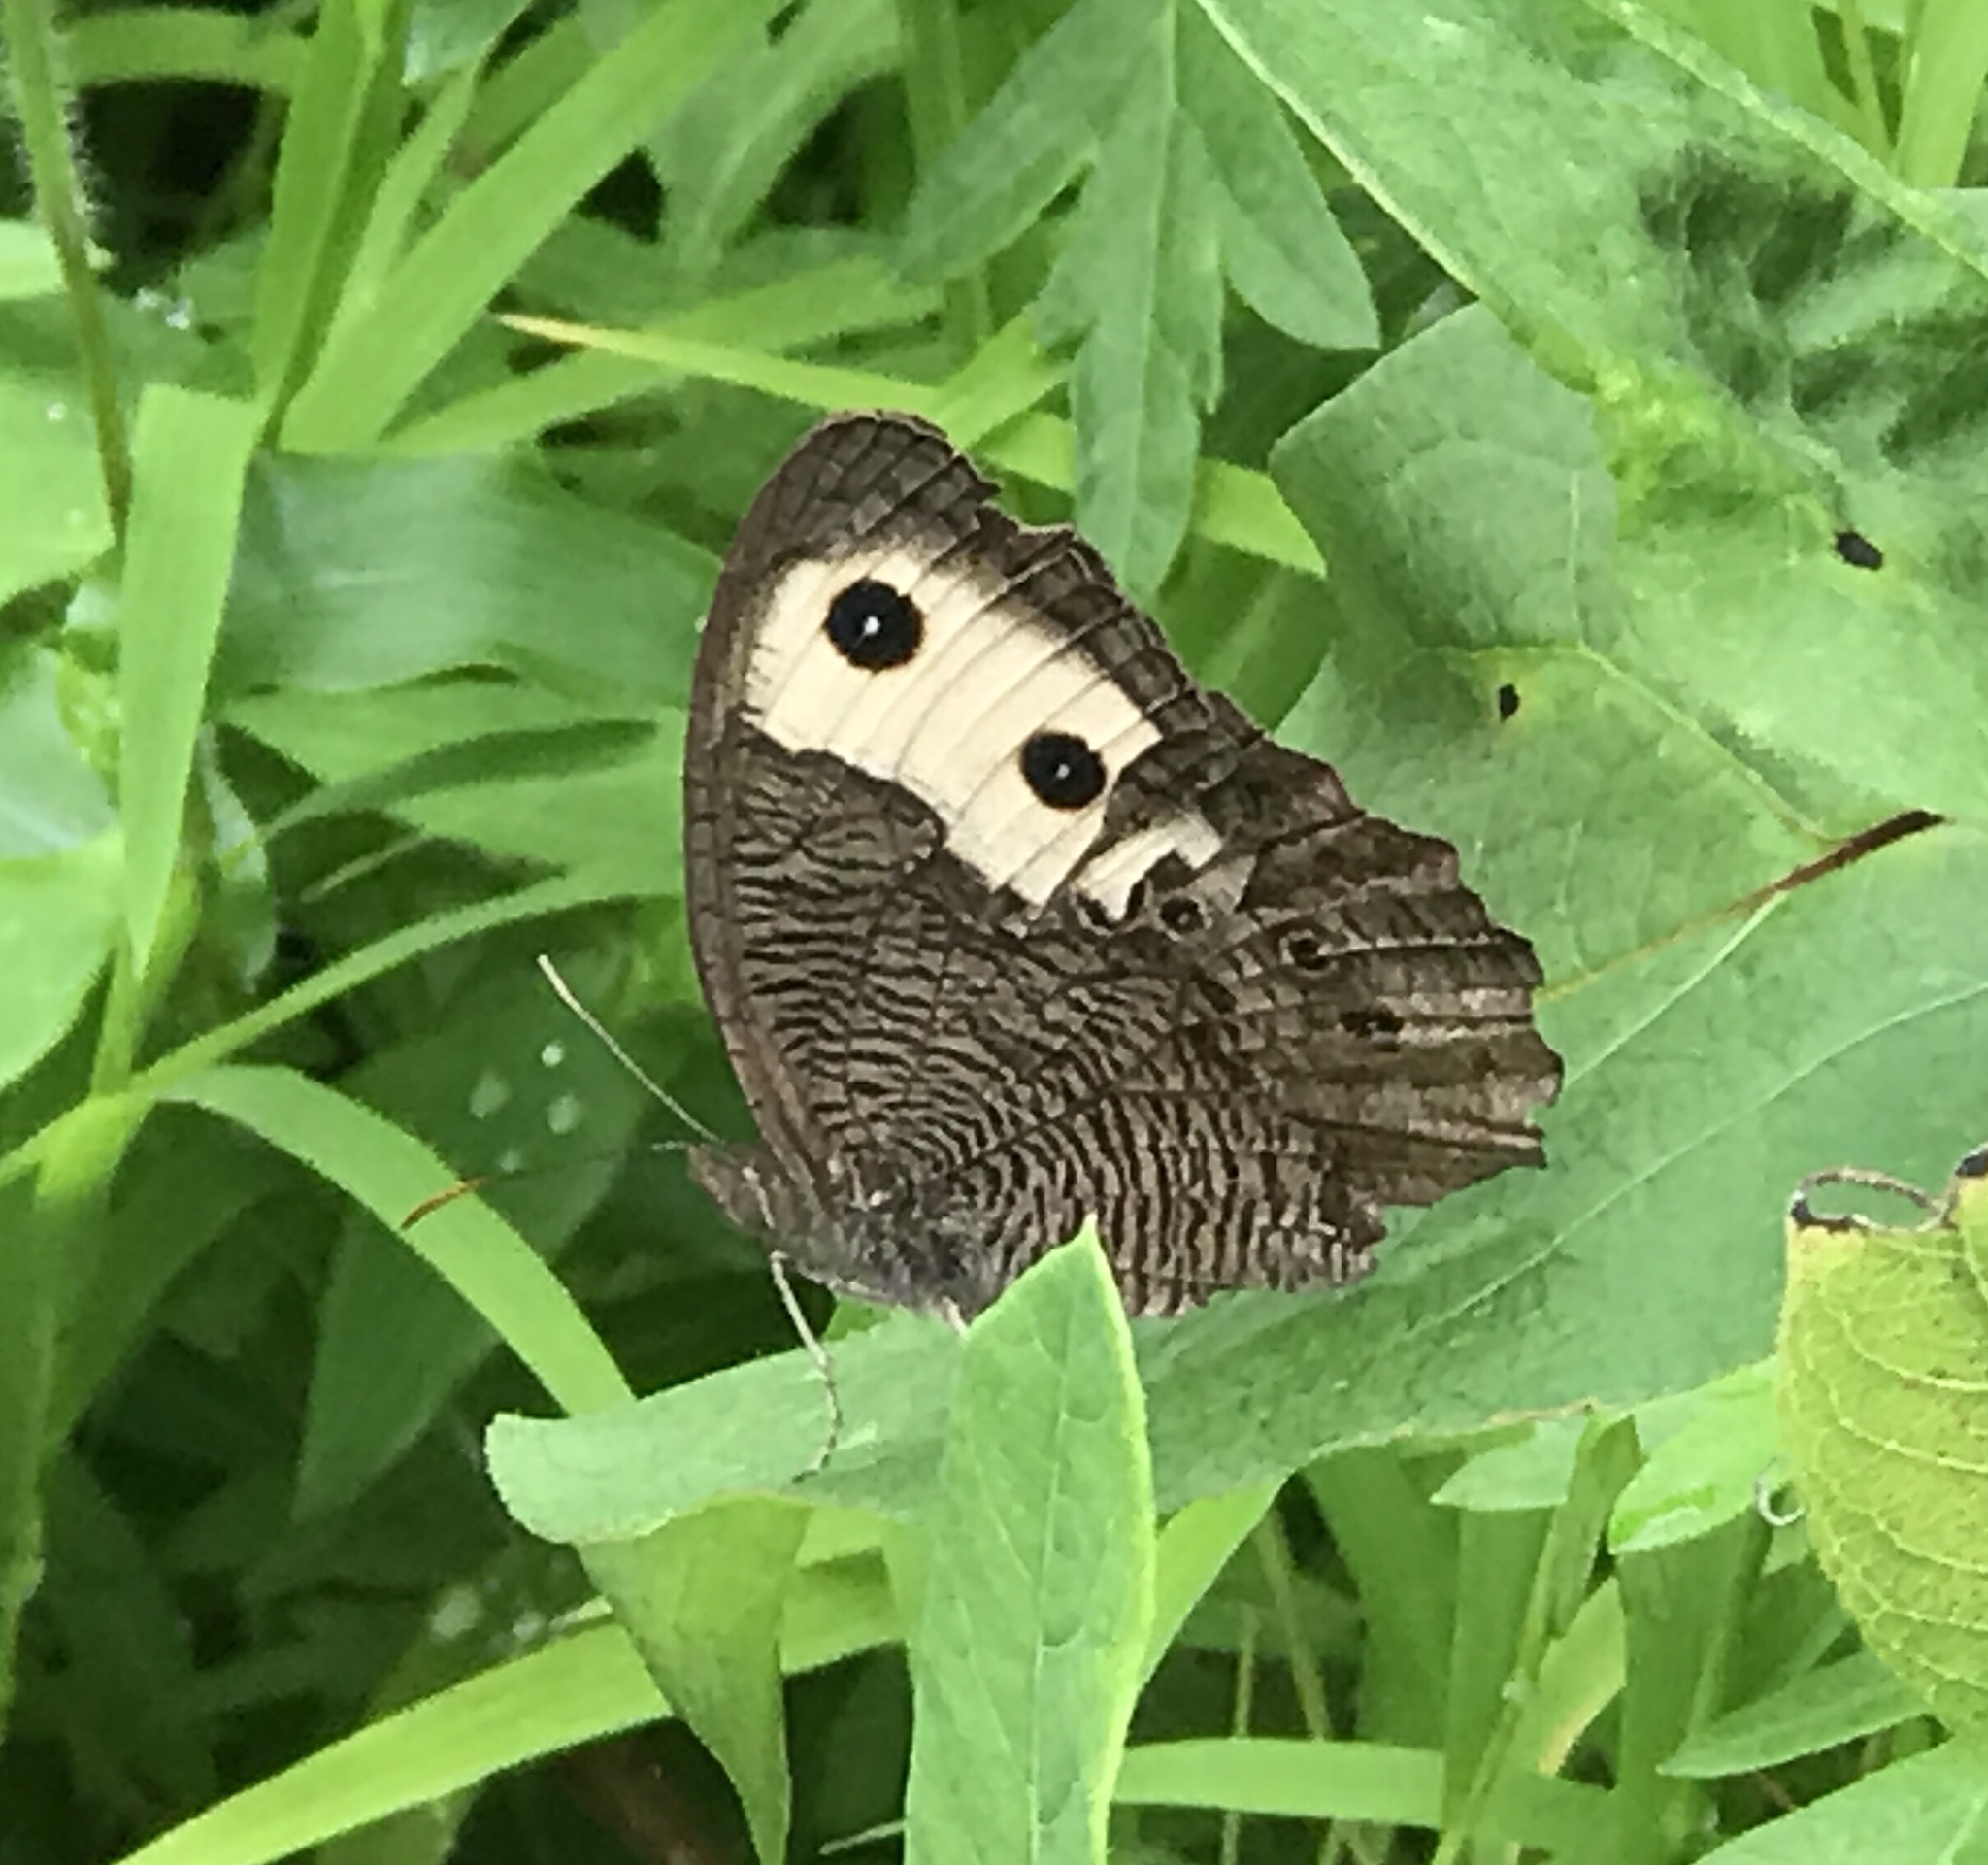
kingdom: Animalia
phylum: Arthropoda
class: Insecta
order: Lepidoptera
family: Nymphalidae
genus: Cercyonis
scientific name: Cercyonis pegala
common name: Common wood-nymph
